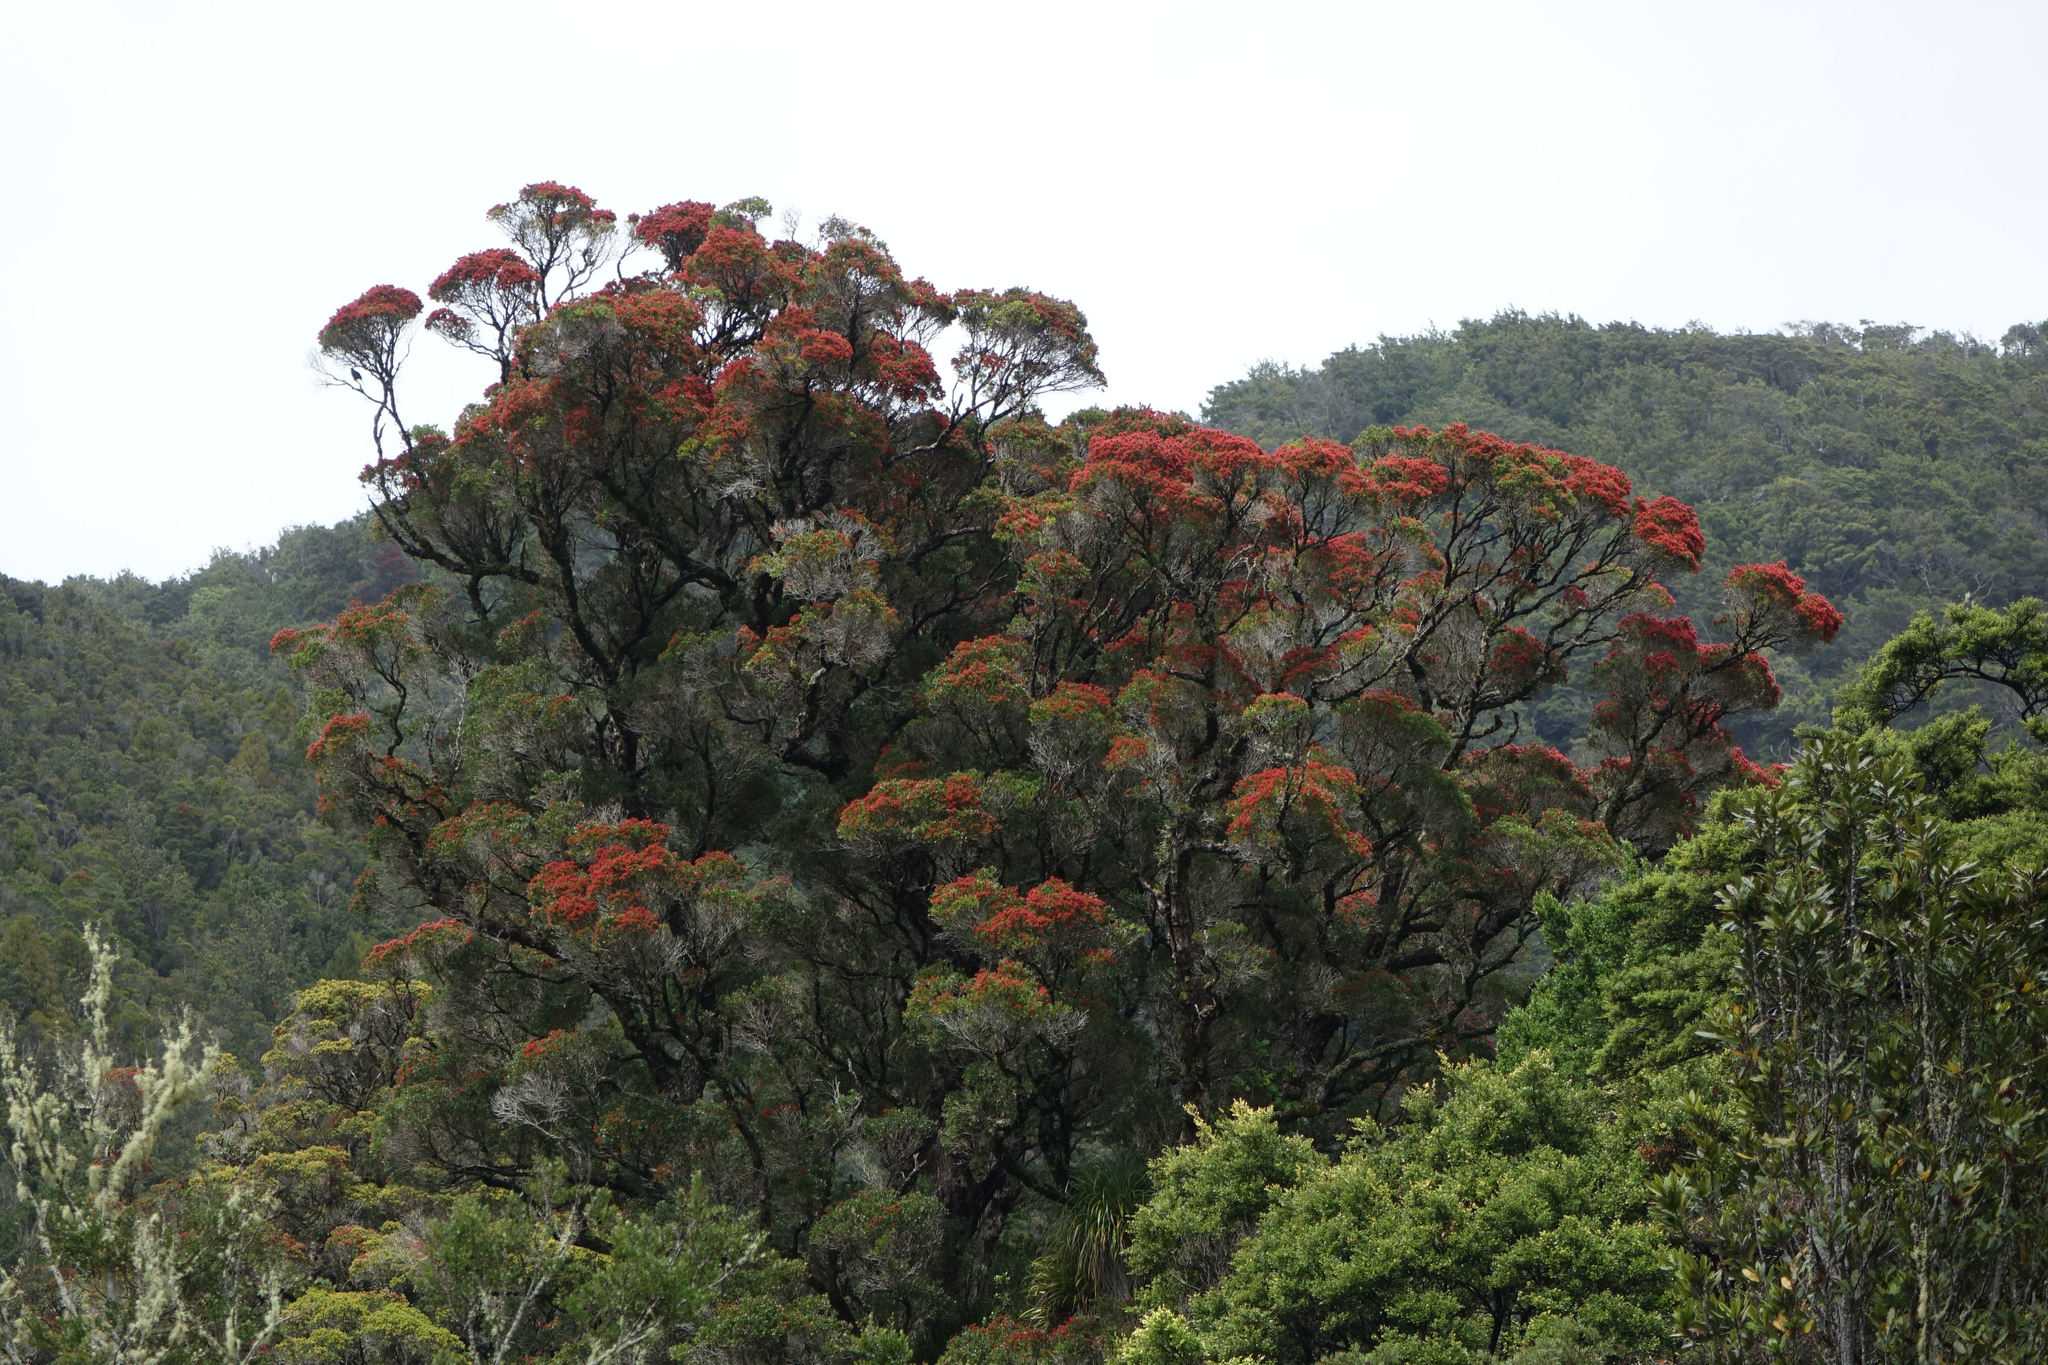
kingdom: Plantae
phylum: Tracheophyta
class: Magnoliopsida
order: Myrtales
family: Myrtaceae
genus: Metrosideros
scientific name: Metrosideros robusta
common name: Northern rata
